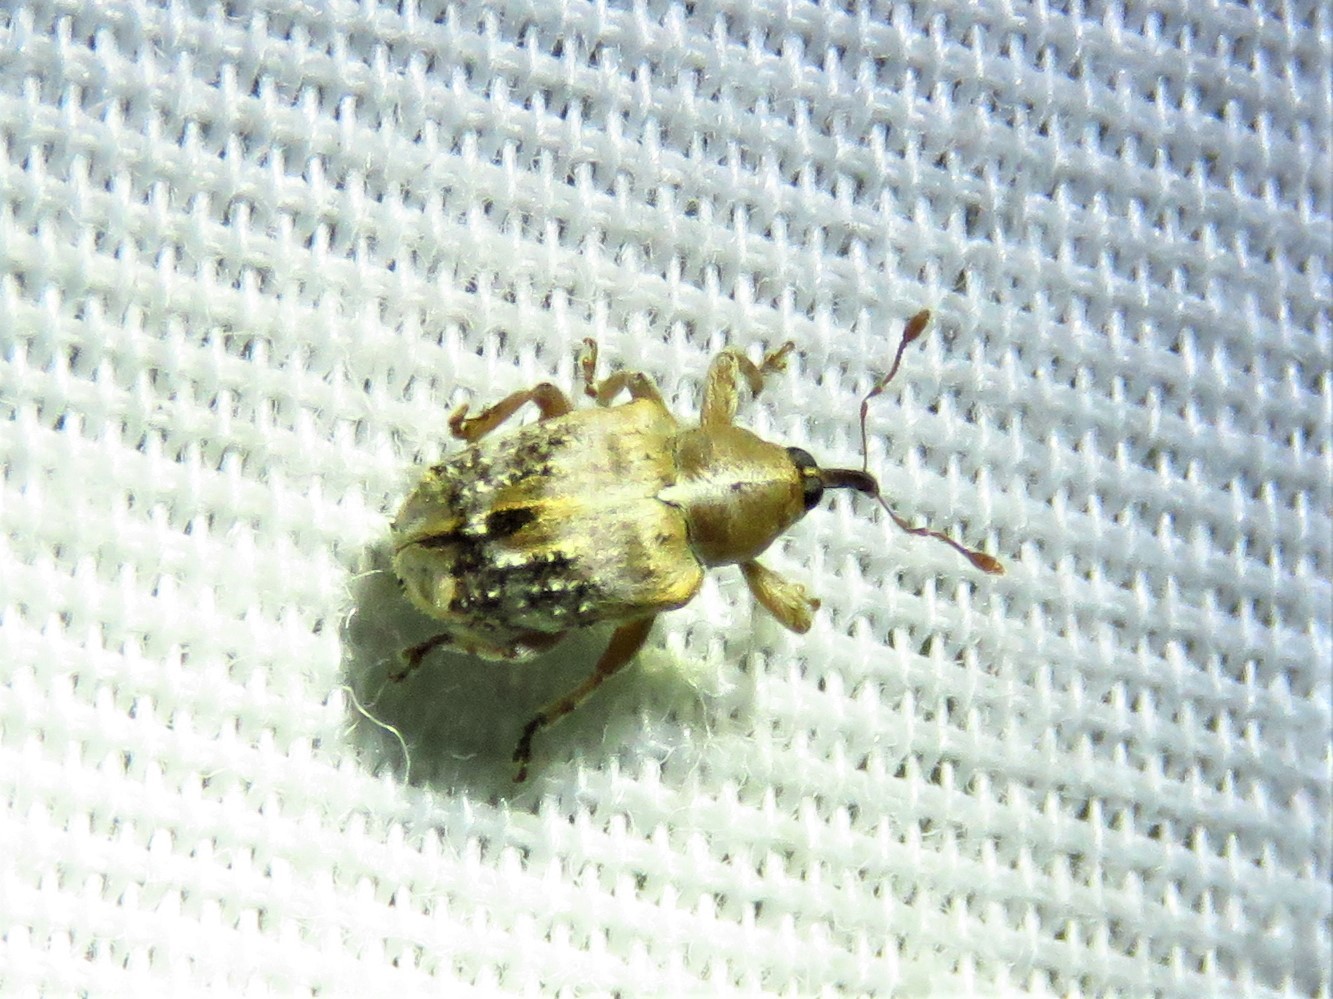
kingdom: Animalia
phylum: Arthropoda
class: Insecta
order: Coleoptera
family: Curculionidae
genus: Lignyodes
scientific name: Lignyodes pallidus
